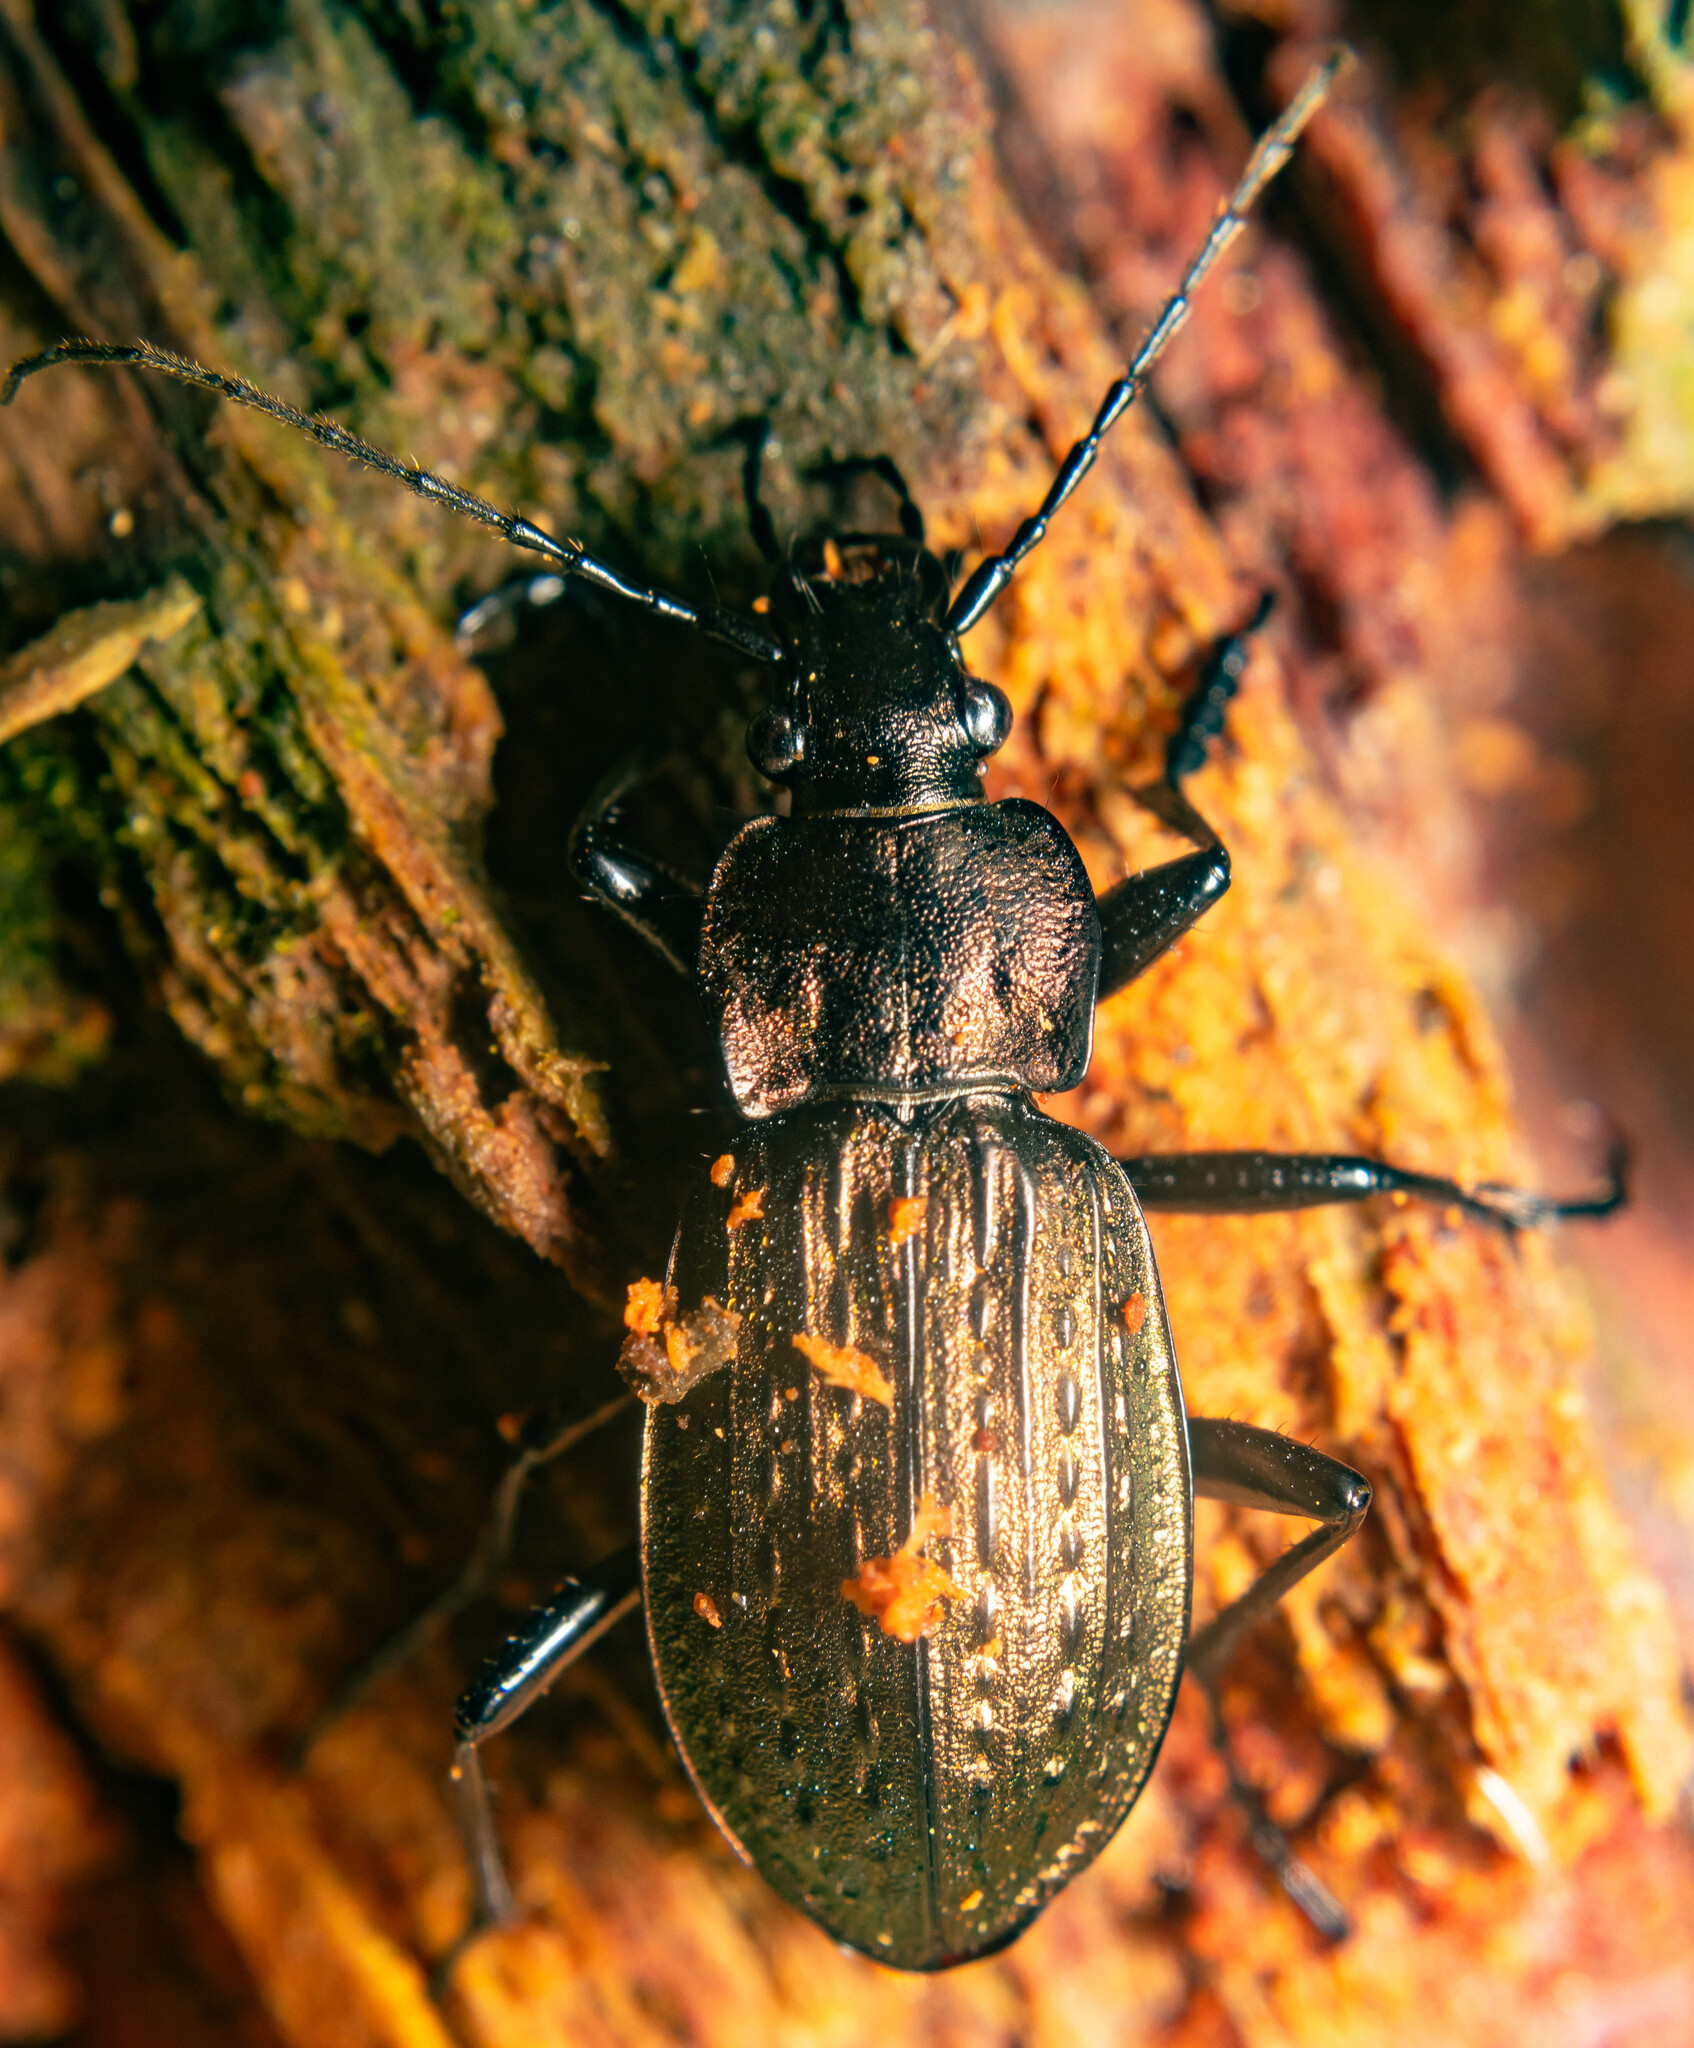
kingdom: Animalia
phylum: Arthropoda
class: Insecta
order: Coleoptera
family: Carabidae
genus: Carabus
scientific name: Carabus granulatus
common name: Granulate ground beetle
